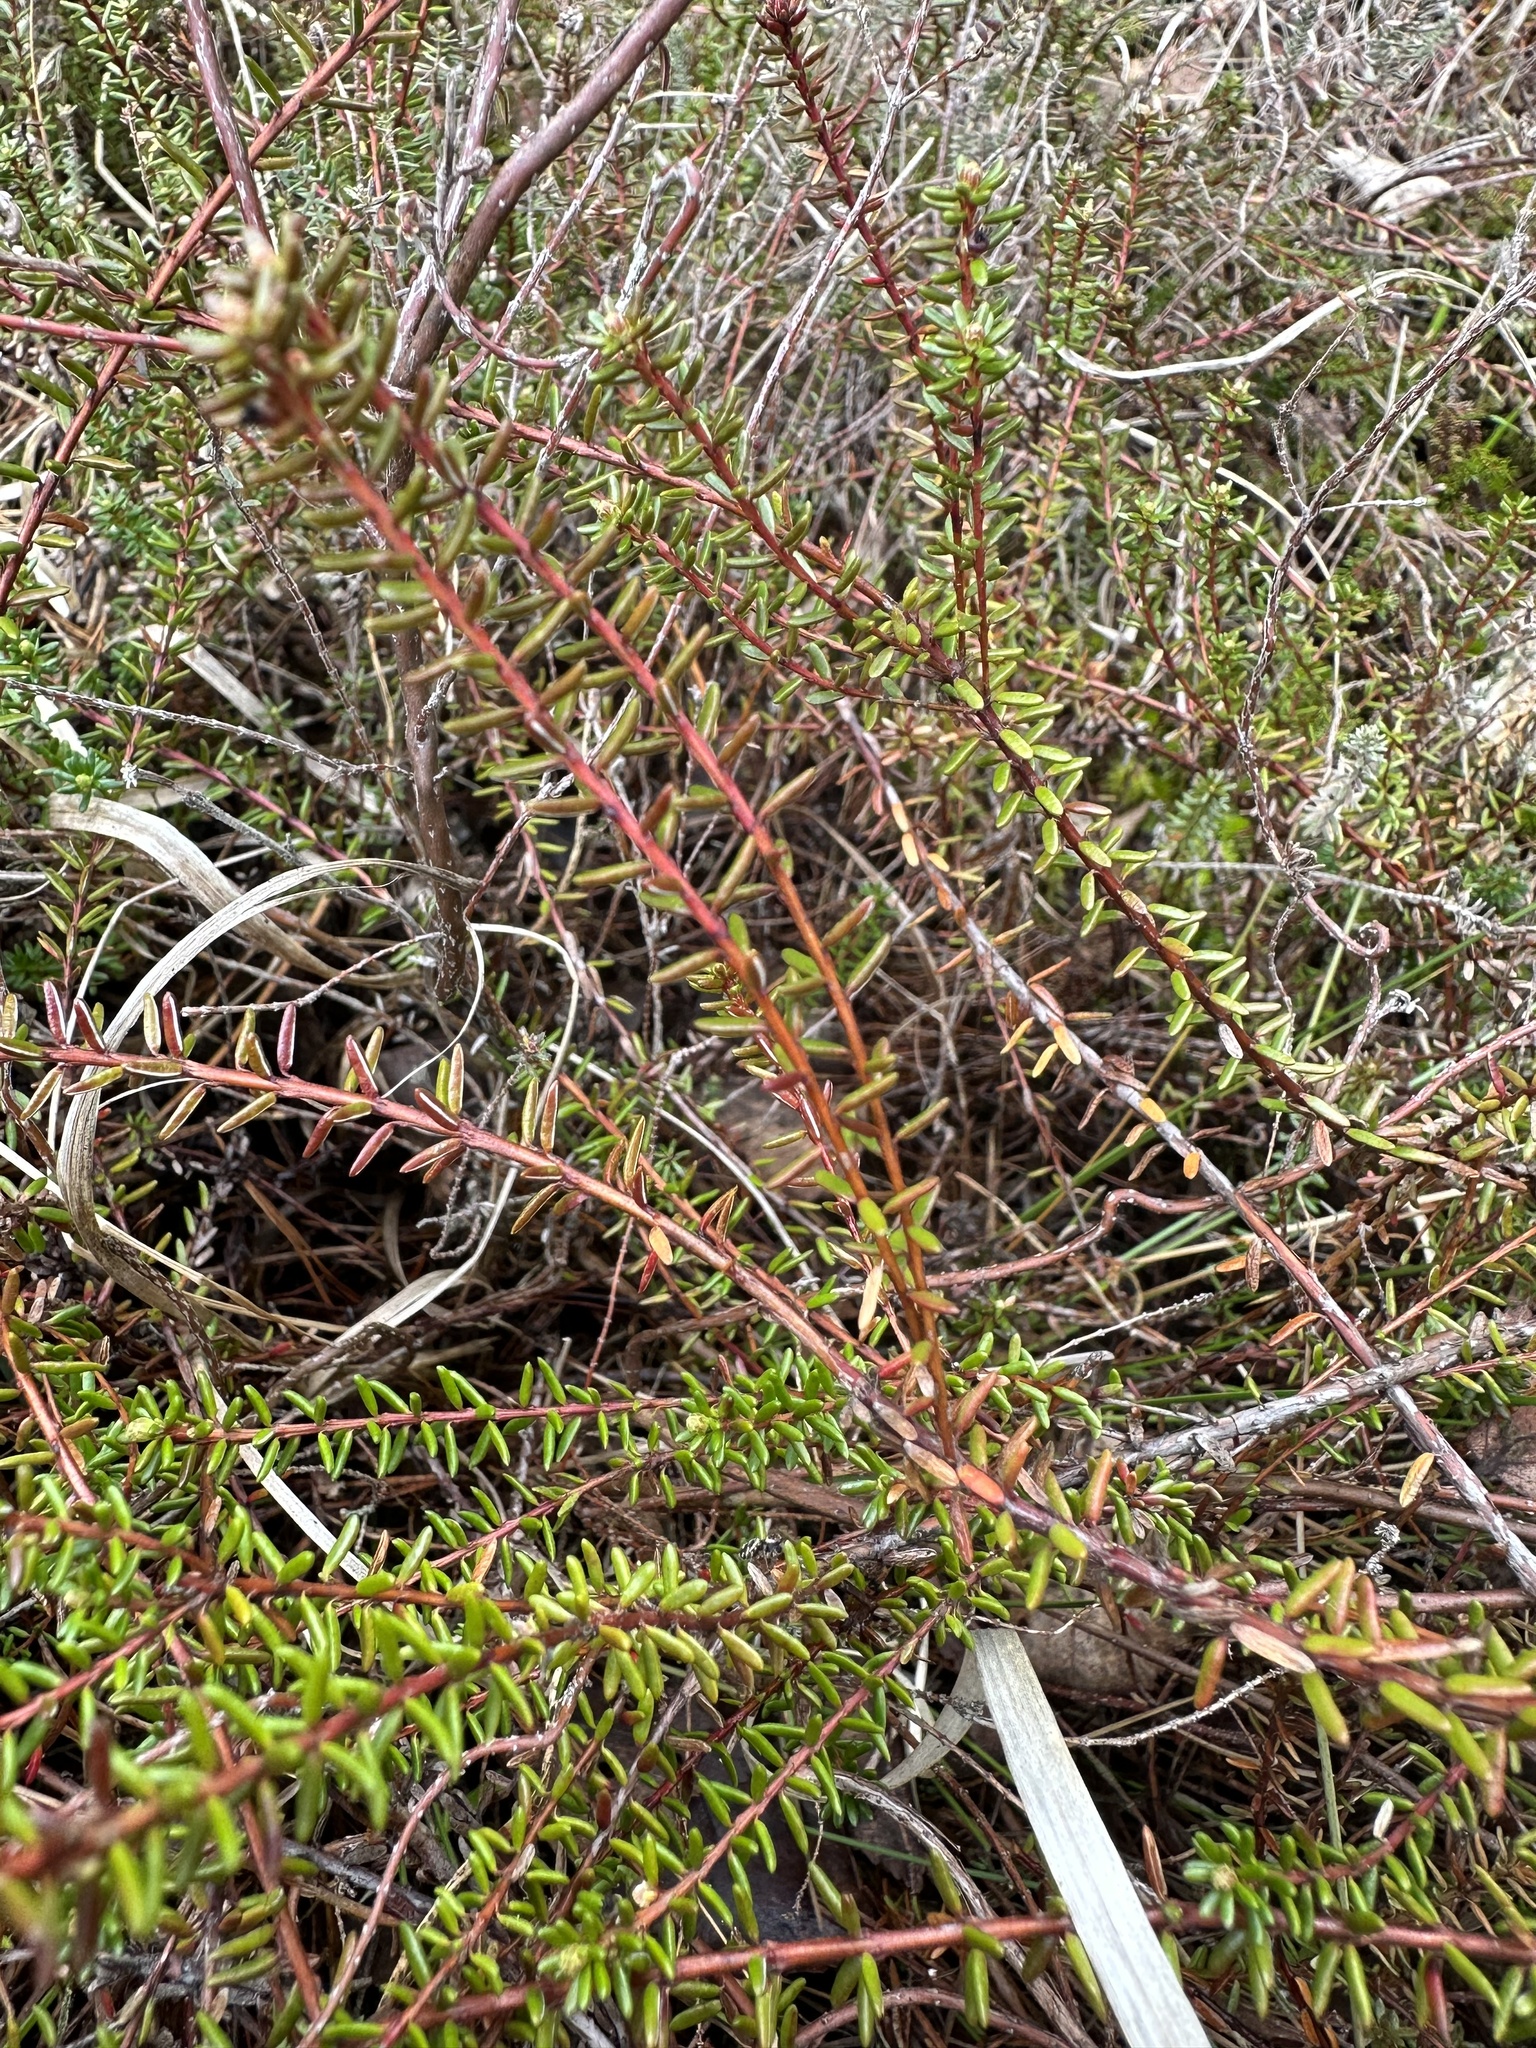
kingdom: Plantae
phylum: Tracheophyta
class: Magnoliopsida
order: Ericales
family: Ericaceae
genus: Empetrum
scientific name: Empetrum nigrum
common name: Black crowberry
